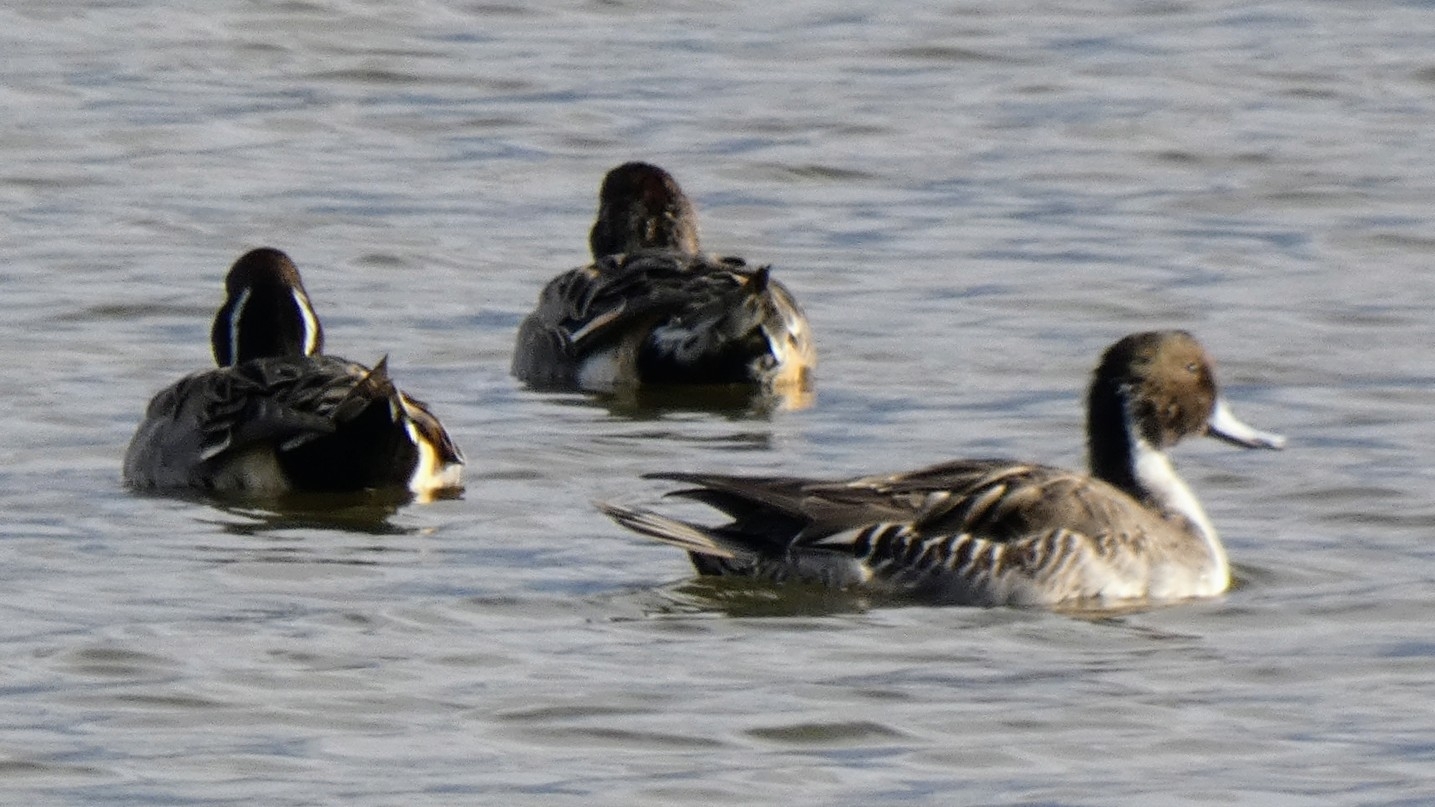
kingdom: Animalia
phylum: Chordata
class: Aves
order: Anseriformes
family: Anatidae
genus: Anas
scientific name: Anas acuta
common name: Northern pintail
